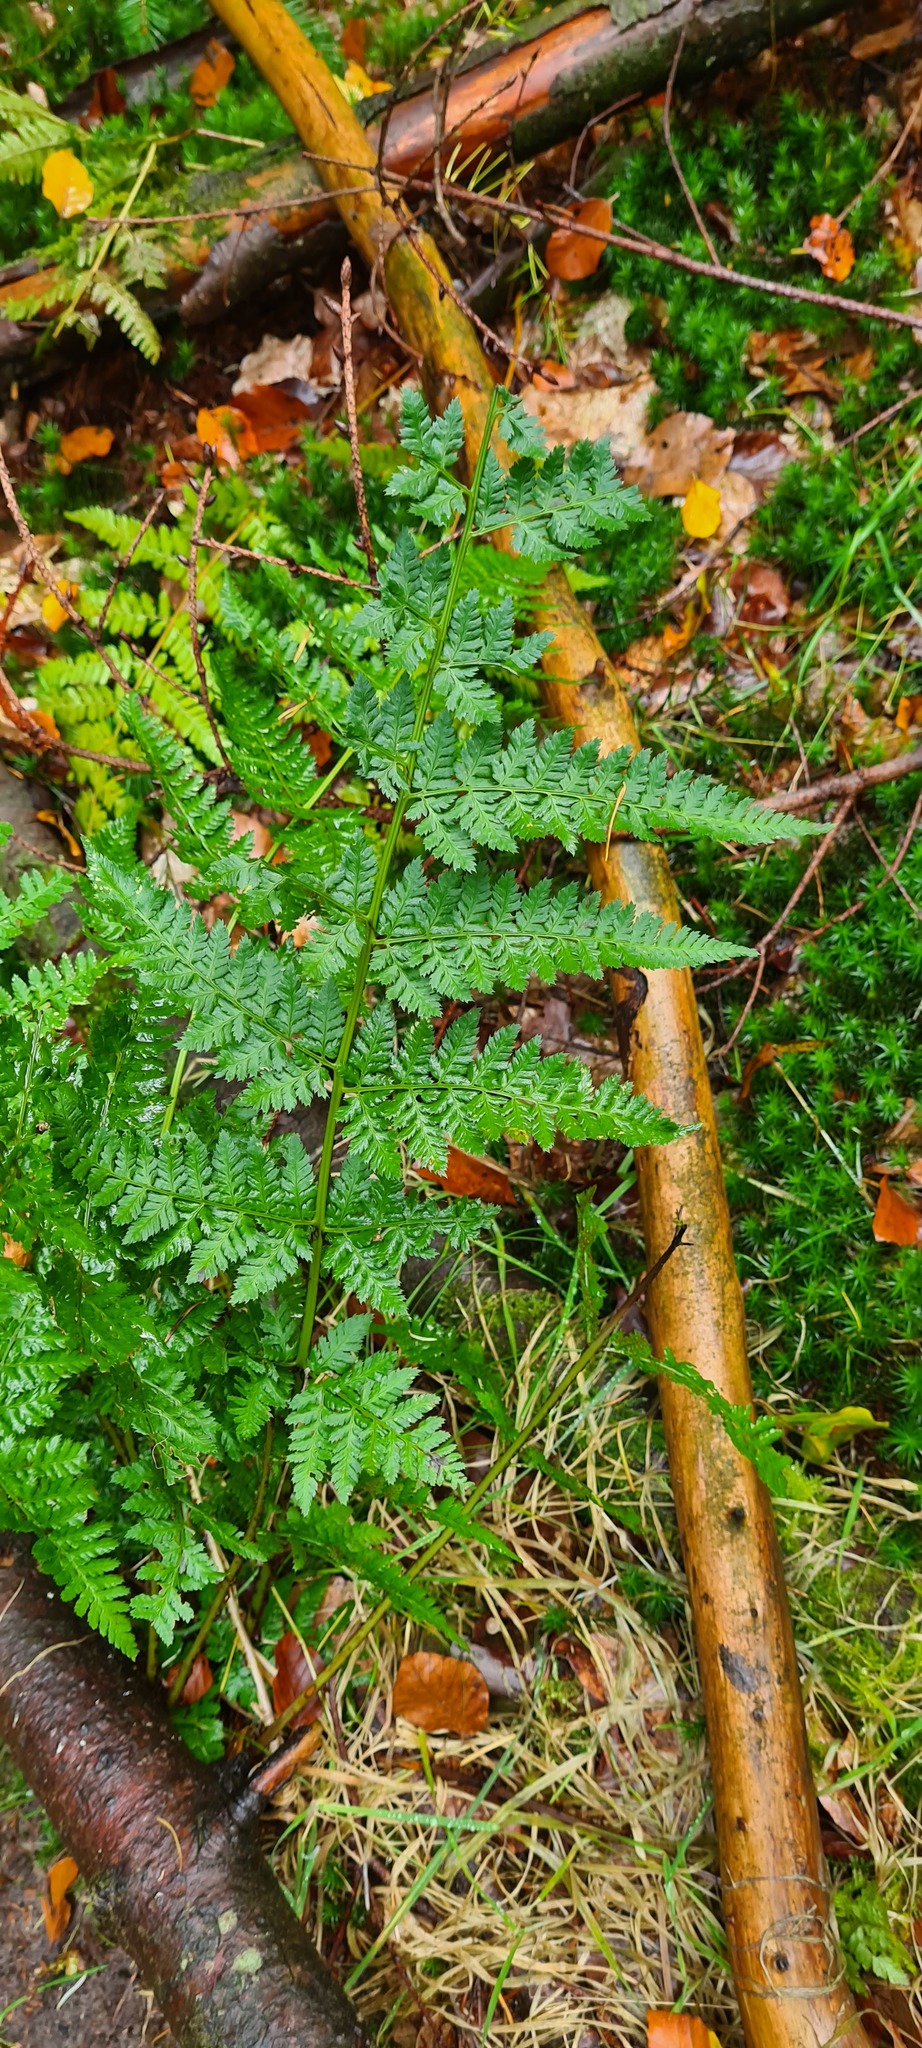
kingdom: Plantae
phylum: Tracheophyta
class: Polypodiopsida
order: Polypodiales
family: Dryopteridaceae
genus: Dryopteris
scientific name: Dryopteris carthusiana
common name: Narrow buckler-fern
